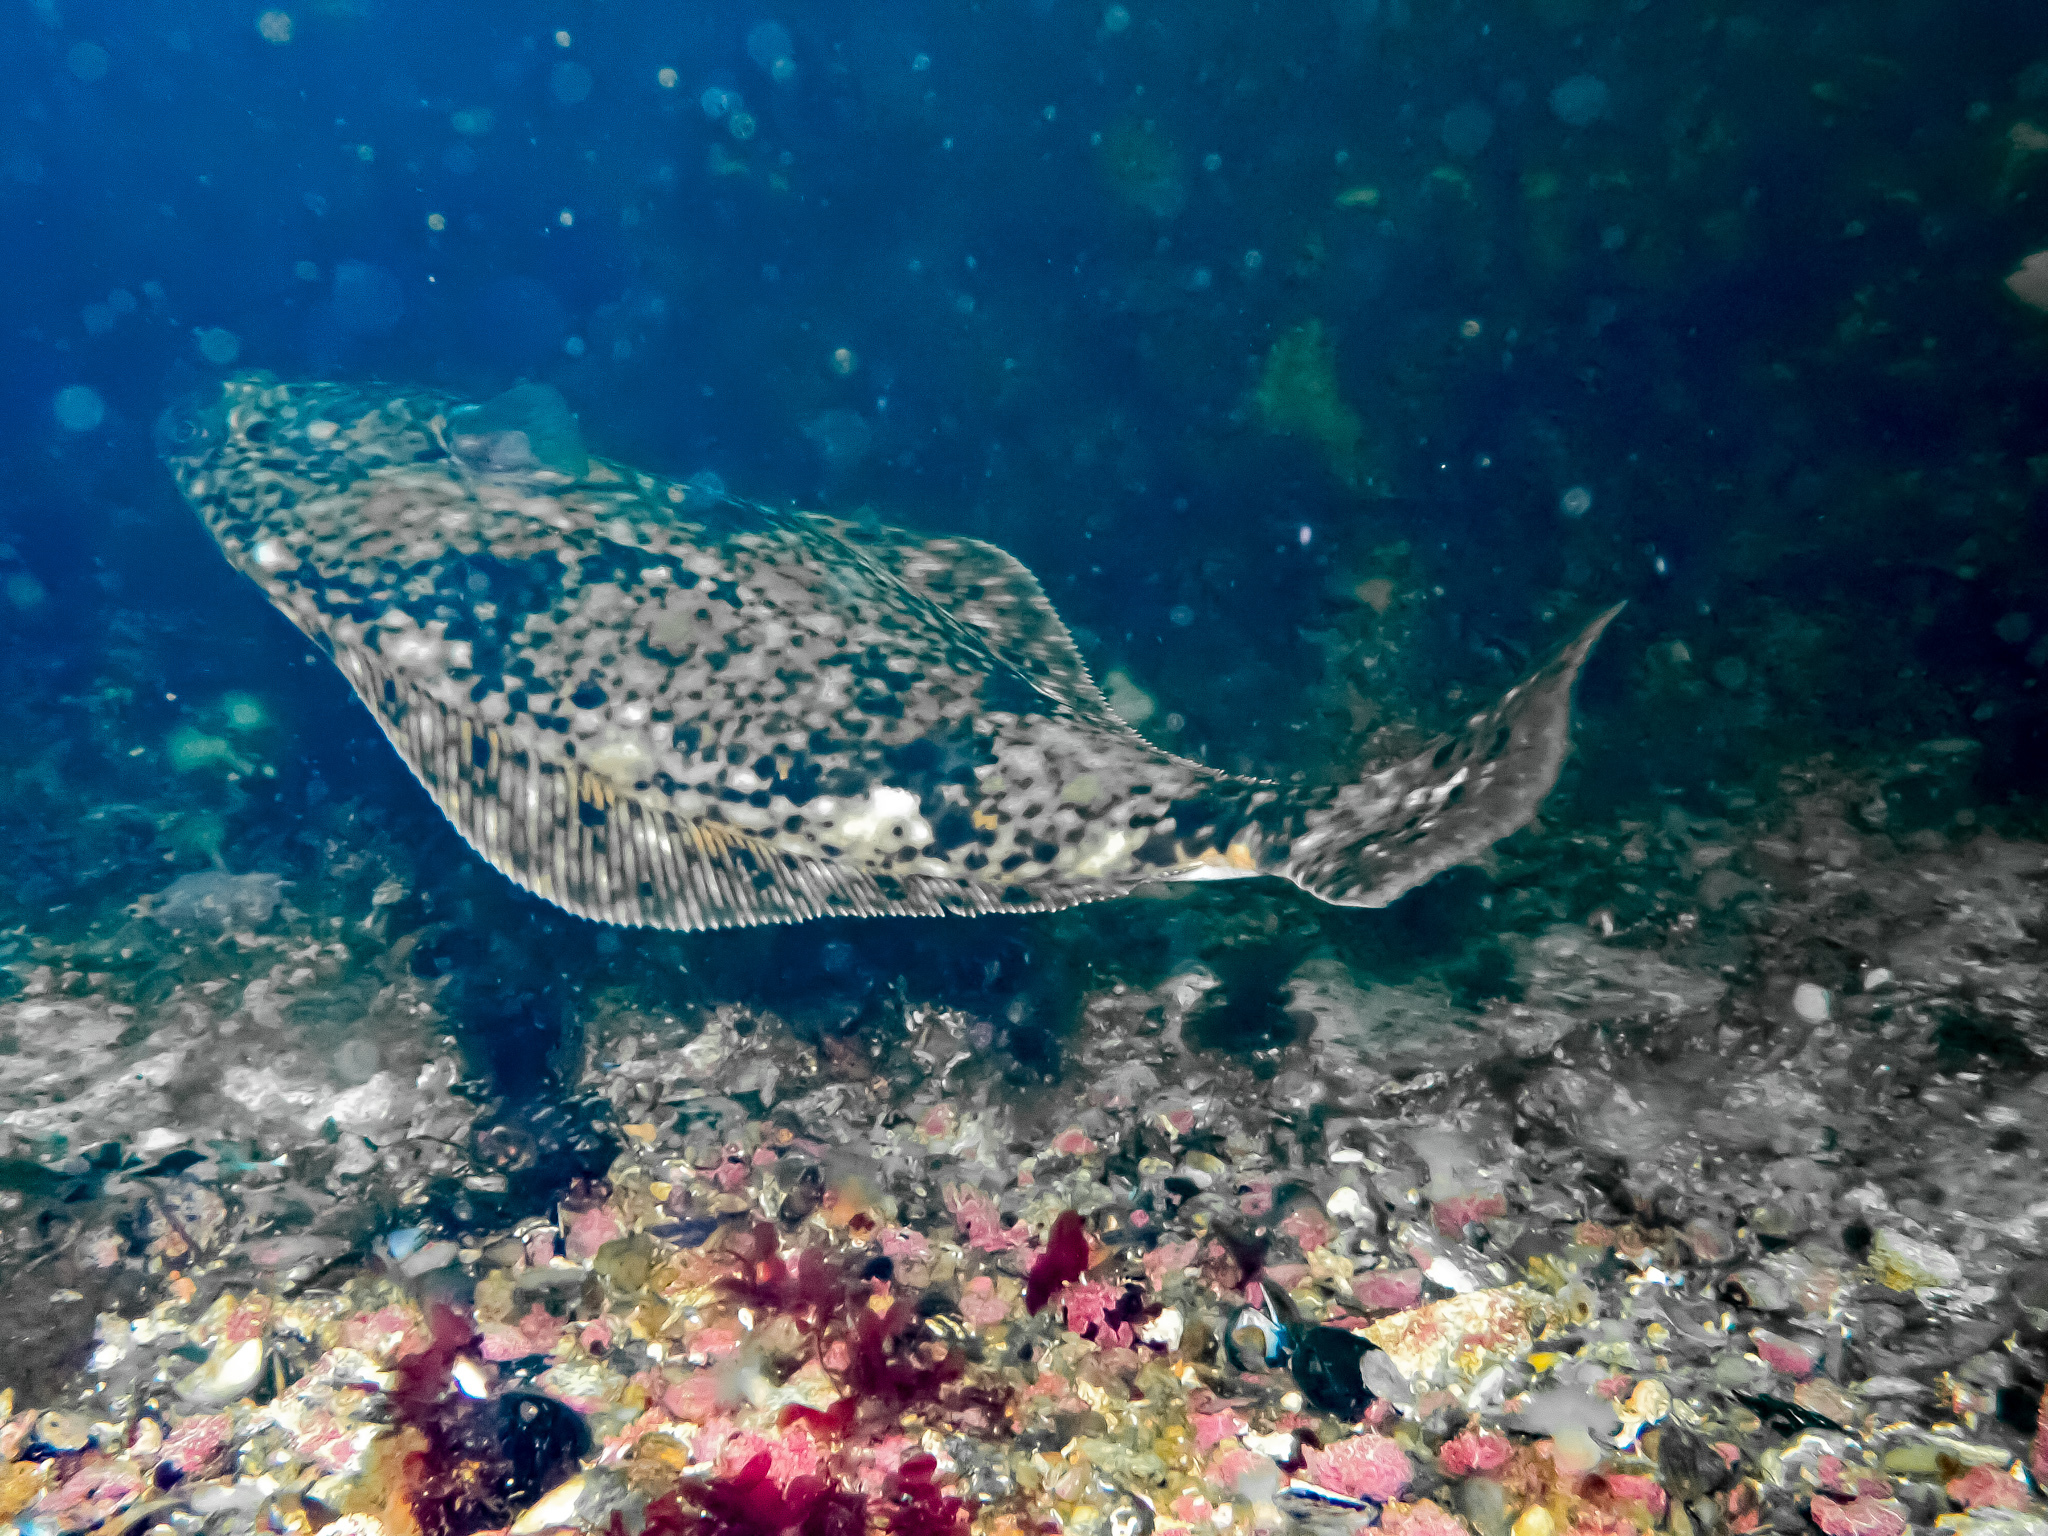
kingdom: Animalia
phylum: Chordata
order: Pleuronectiformes
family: Pleuronectidae
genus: Hippoglossus
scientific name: Hippoglossus hippoglossus
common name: Atlantic halibut
